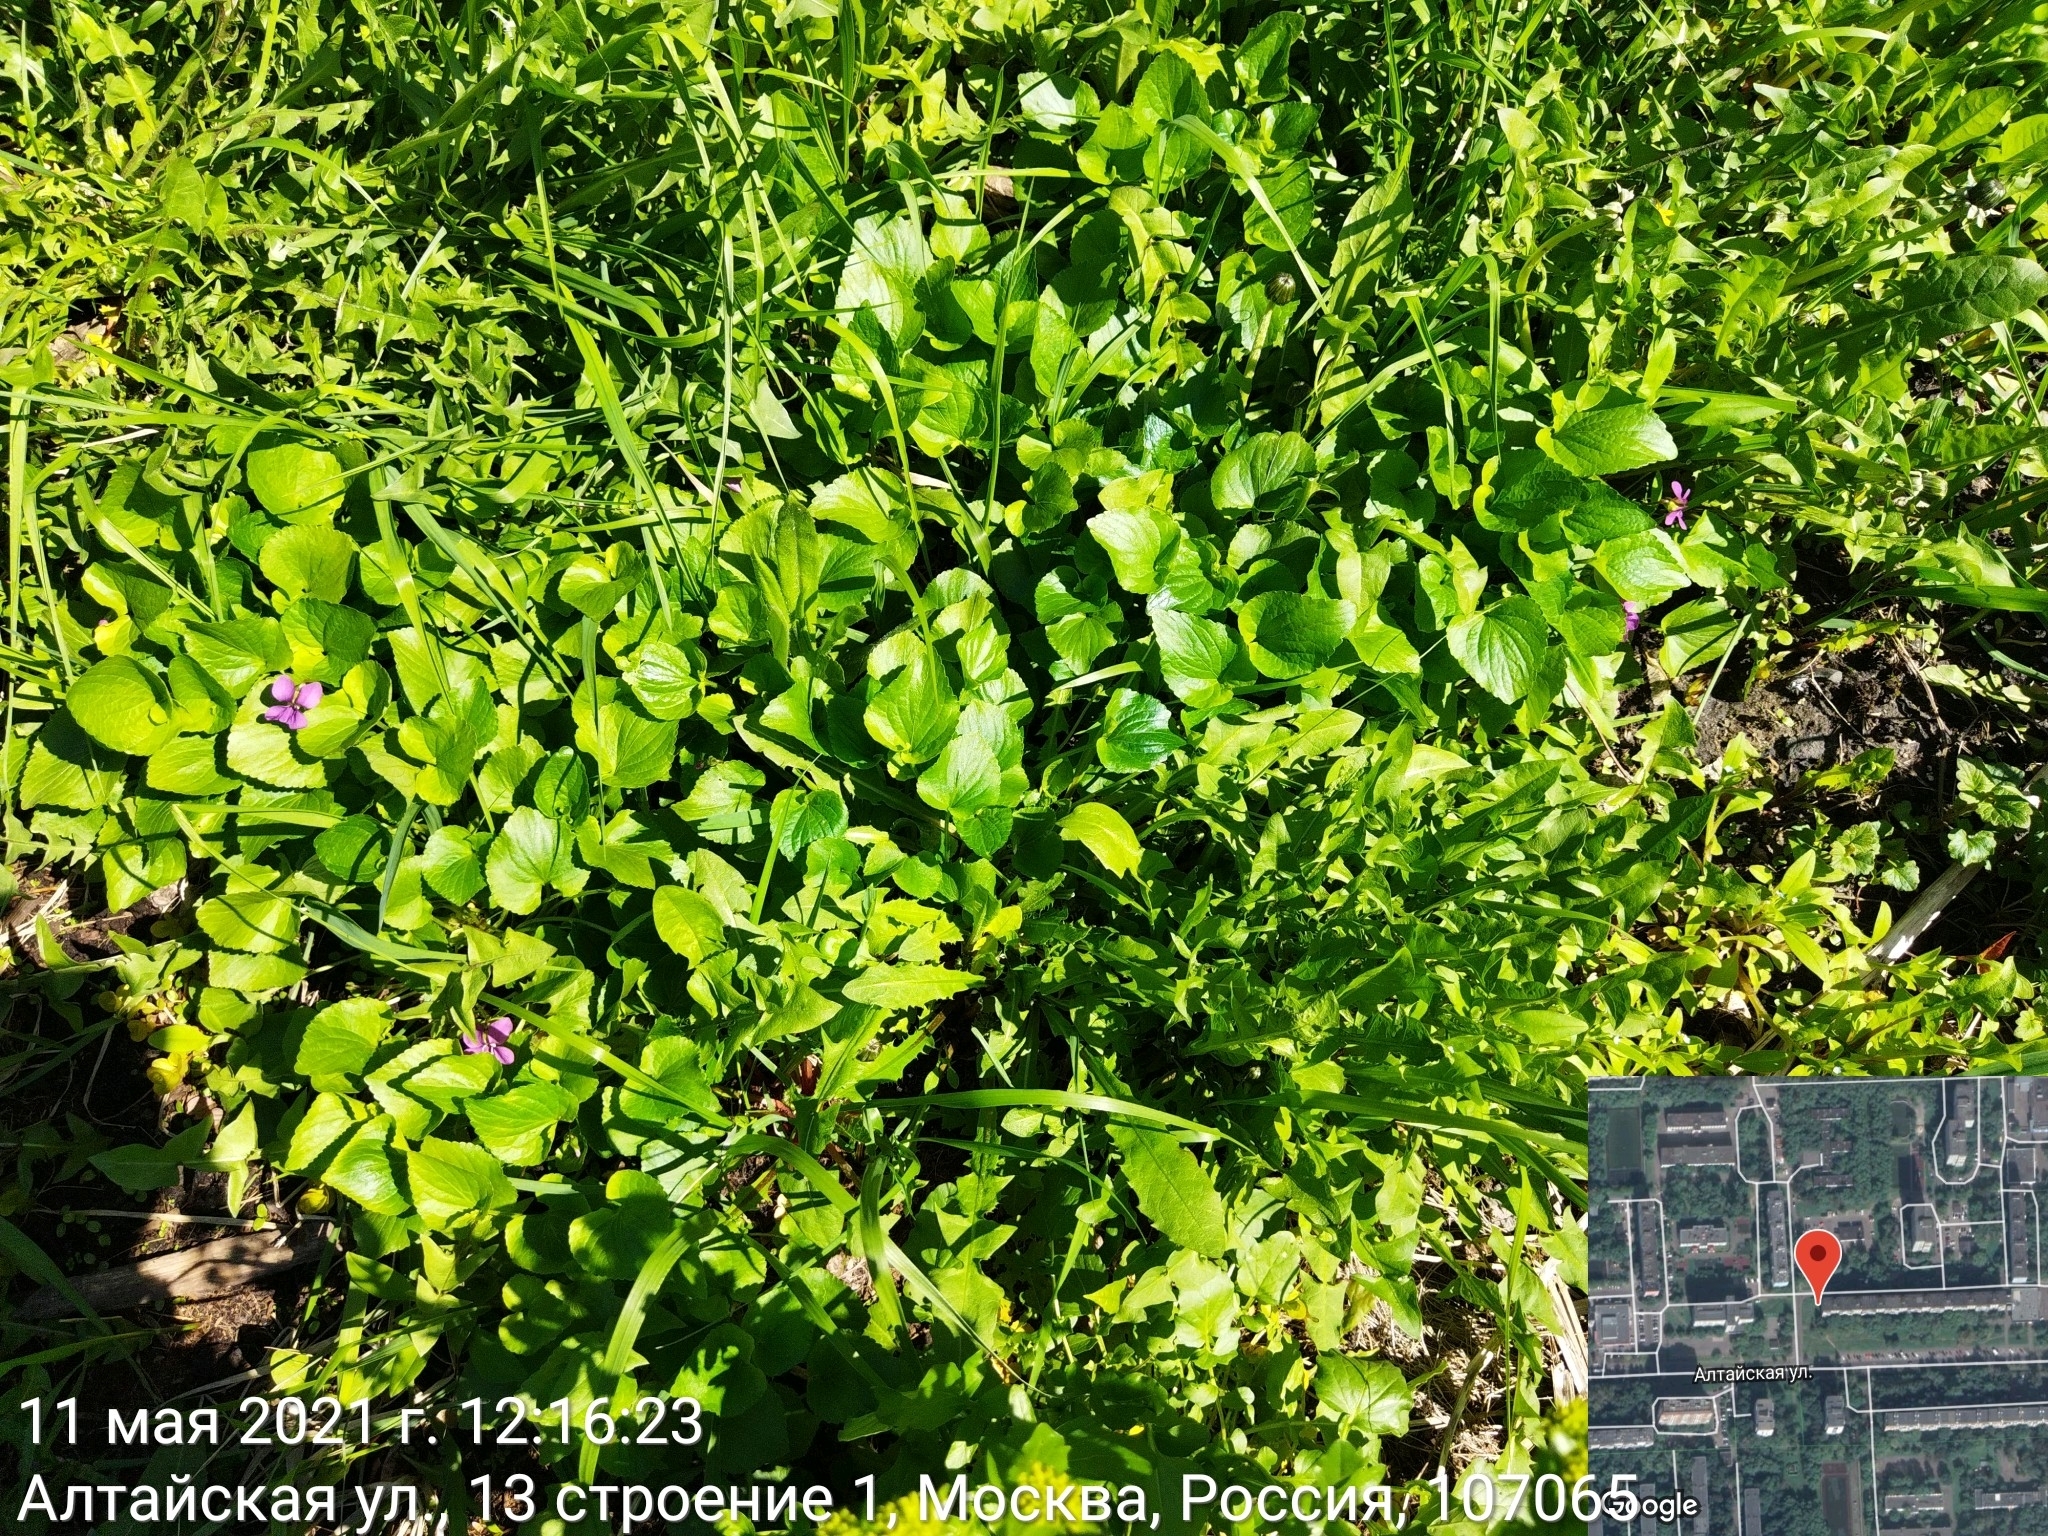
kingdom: Plantae
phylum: Tracheophyta
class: Magnoliopsida
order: Malpighiales
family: Violaceae
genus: Viola
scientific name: Viola odorata
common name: Sweet violet
